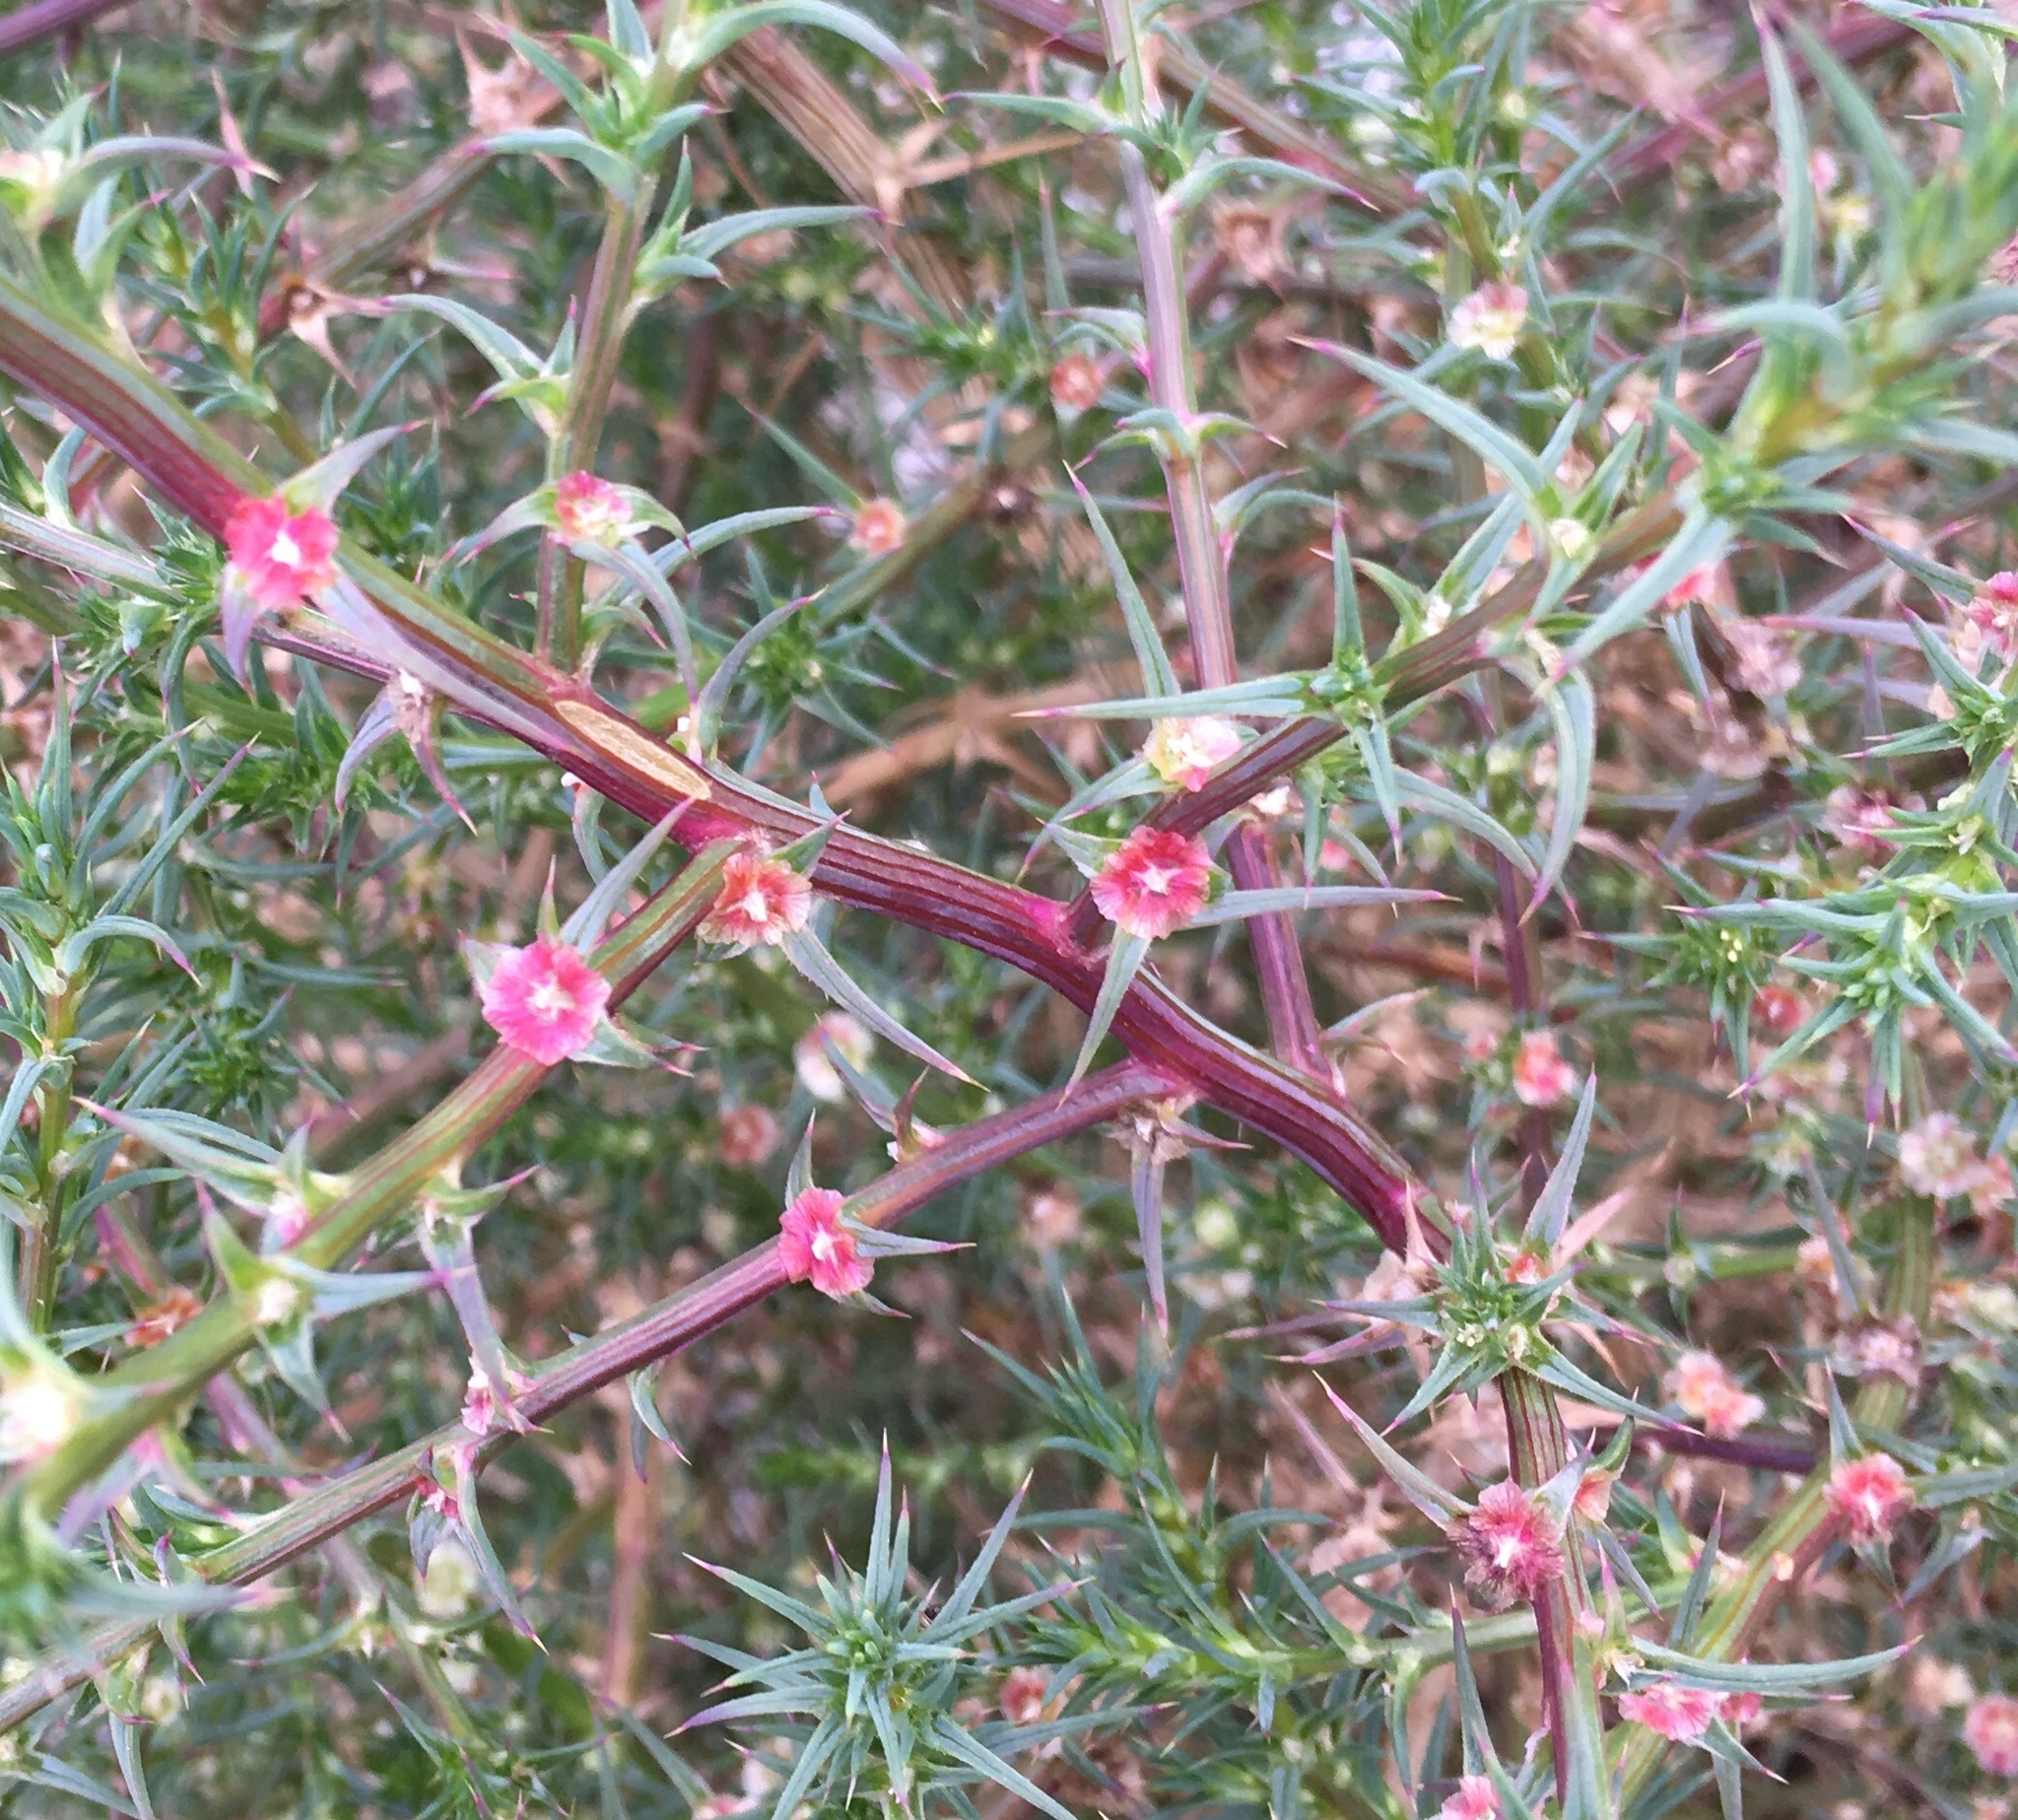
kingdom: Plantae
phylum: Tracheophyta
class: Magnoliopsida
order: Caryophyllales
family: Amaranthaceae
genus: Salsola
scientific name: Salsola australis
